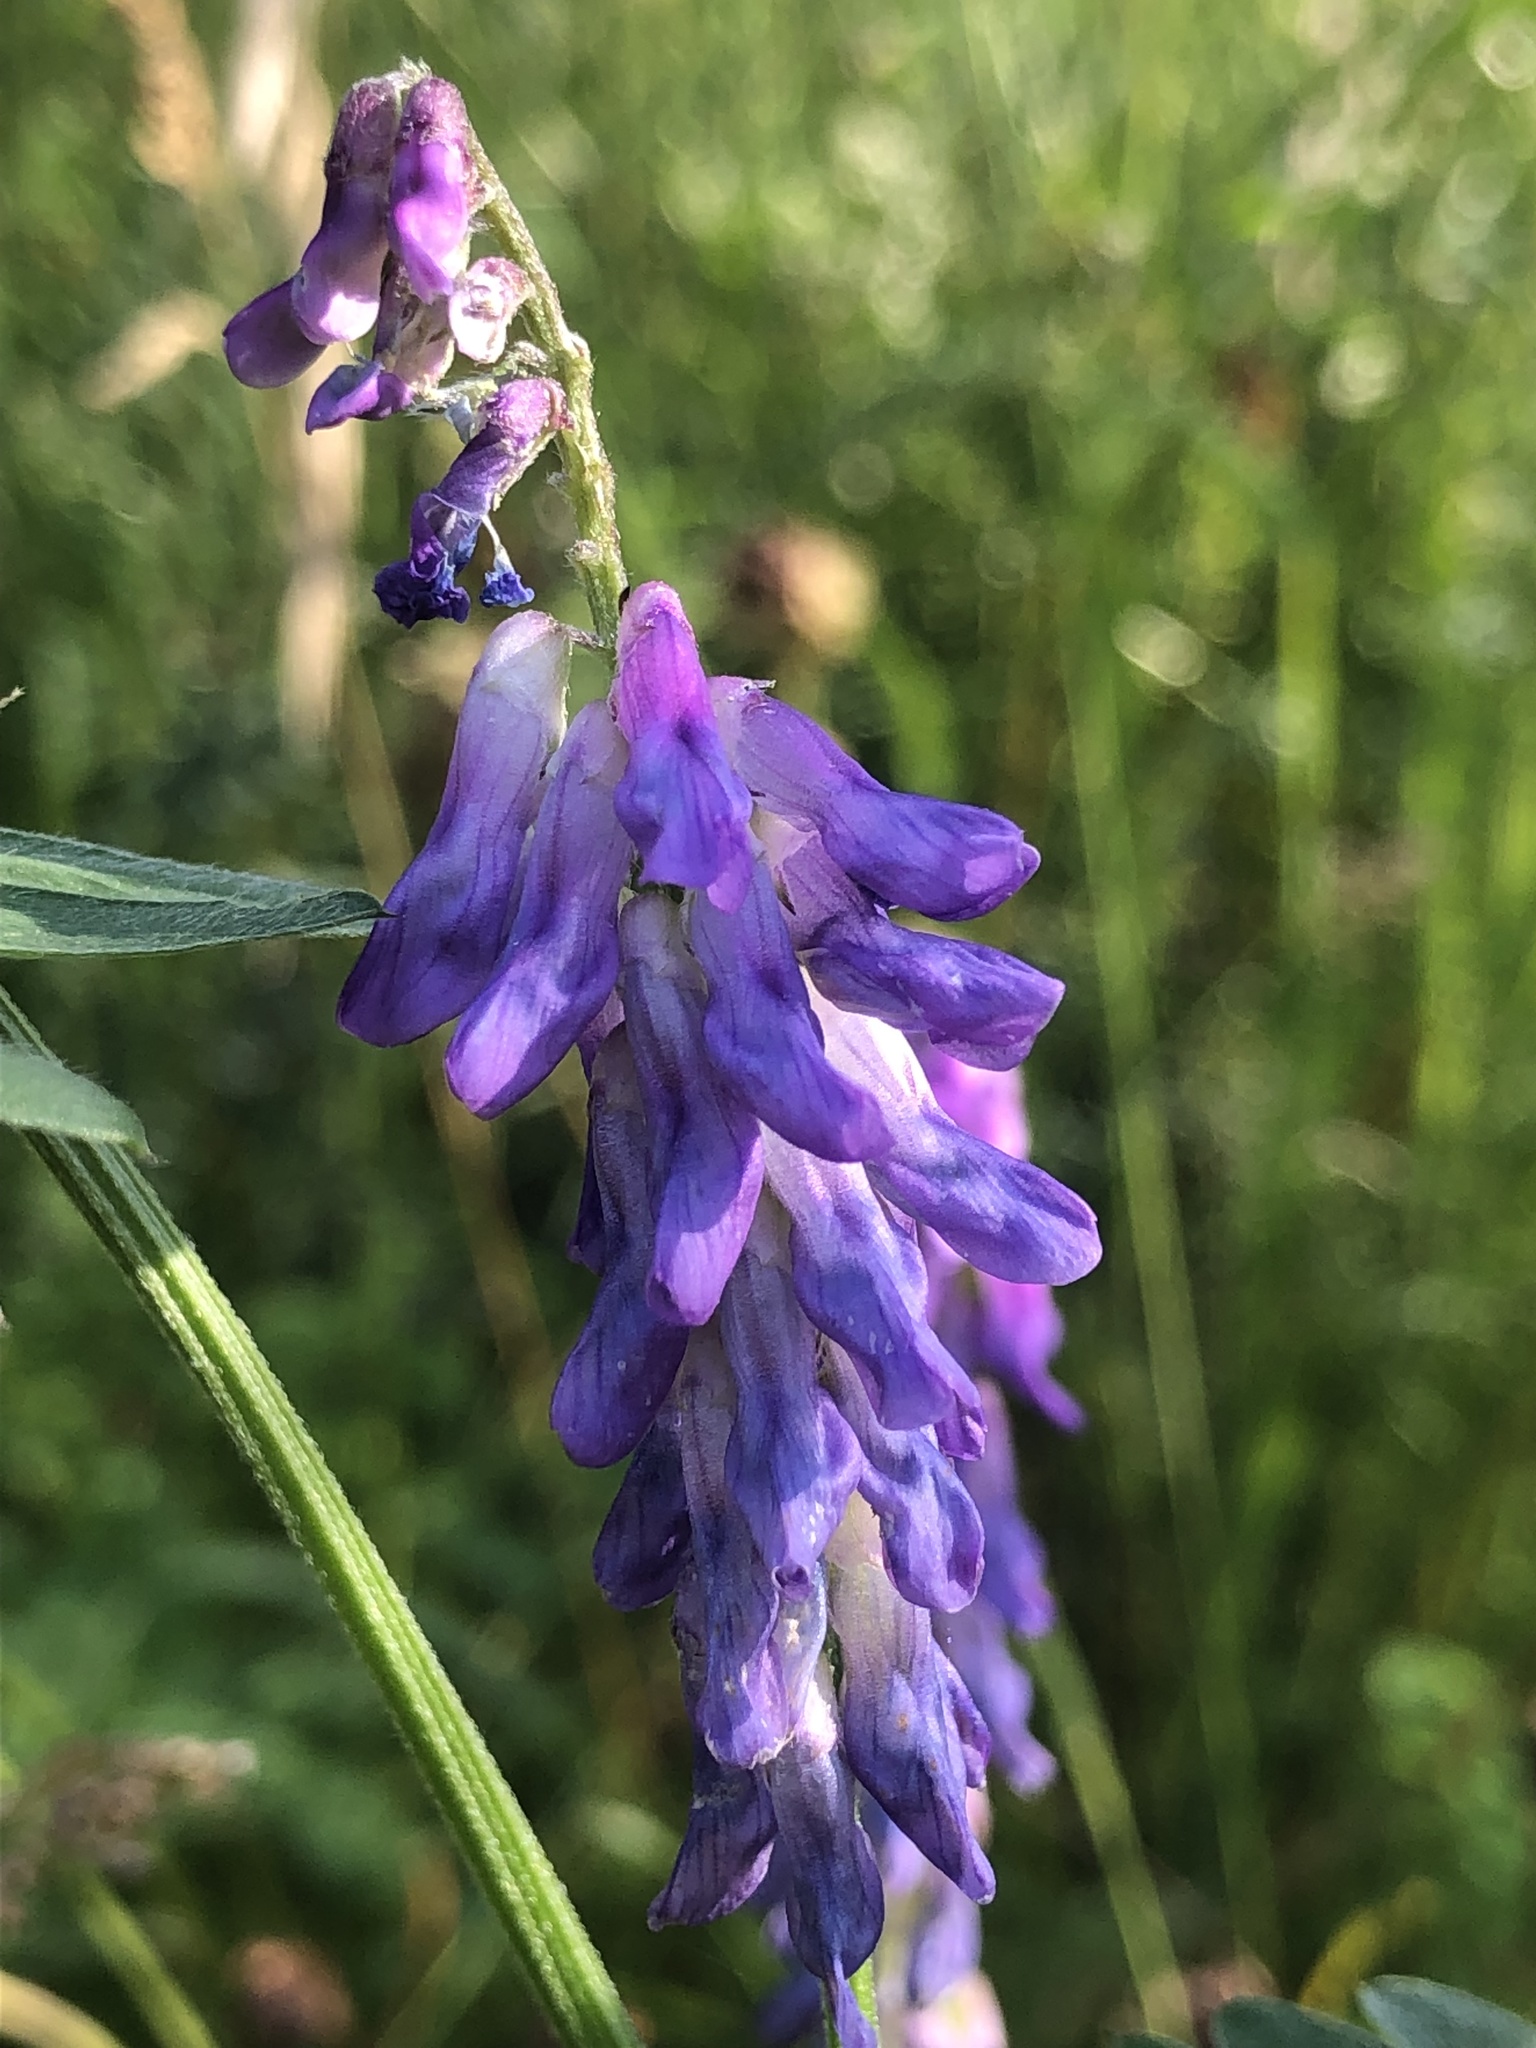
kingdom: Plantae
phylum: Tracheophyta
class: Magnoliopsida
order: Fabales
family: Fabaceae
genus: Vicia
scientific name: Vicia cracca
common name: Bird vetch
